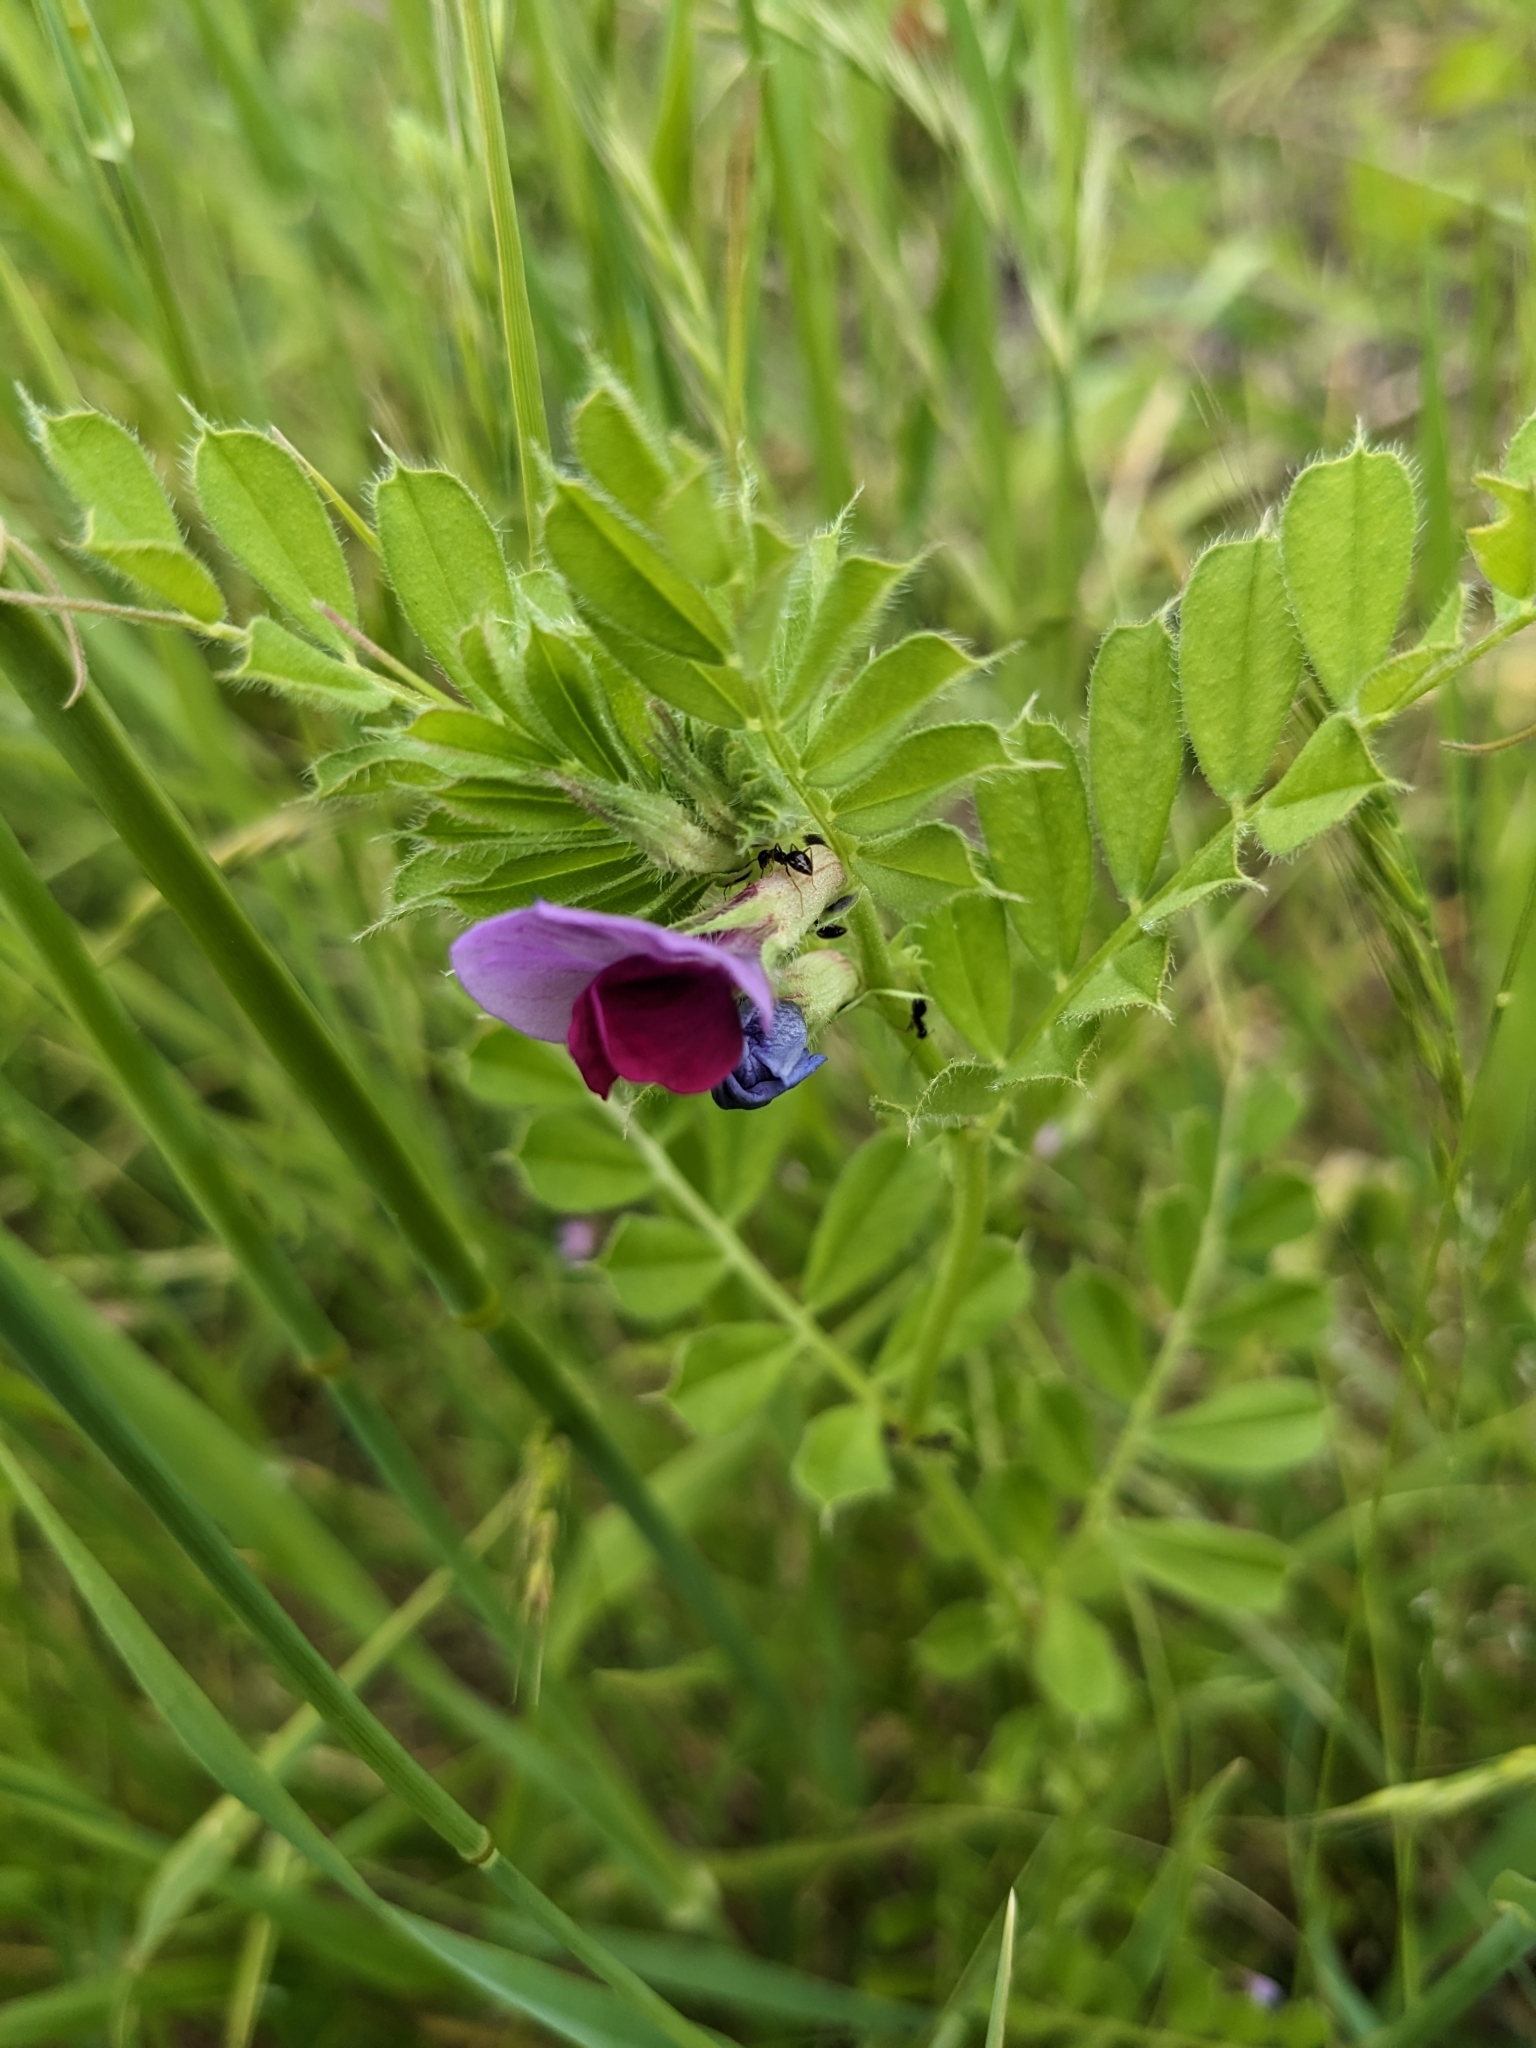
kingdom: Plantae
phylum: Tracheophyta
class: Magnoliopsida
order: Fabales
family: Fabaceae
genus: Vicia
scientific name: Vicia sativa
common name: Garden vetch
